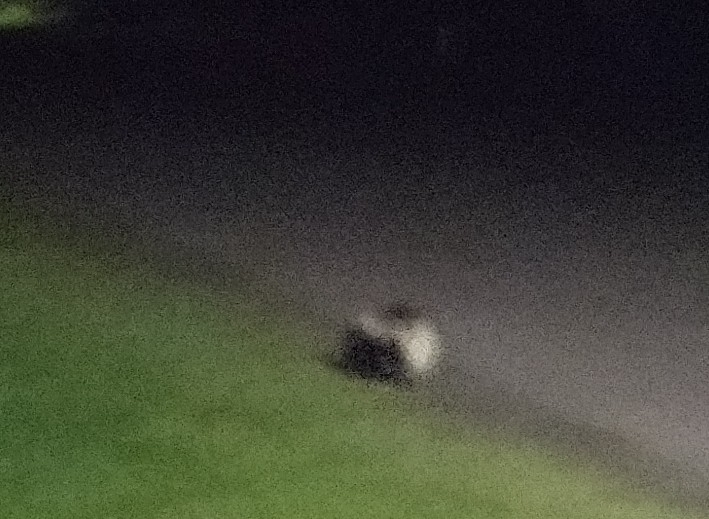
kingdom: Animalia
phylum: Chordata
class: Mammalia
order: Carnivora
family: Mephitidae
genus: Mephitis
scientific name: Mephitis mephitis
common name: Striped skunk
